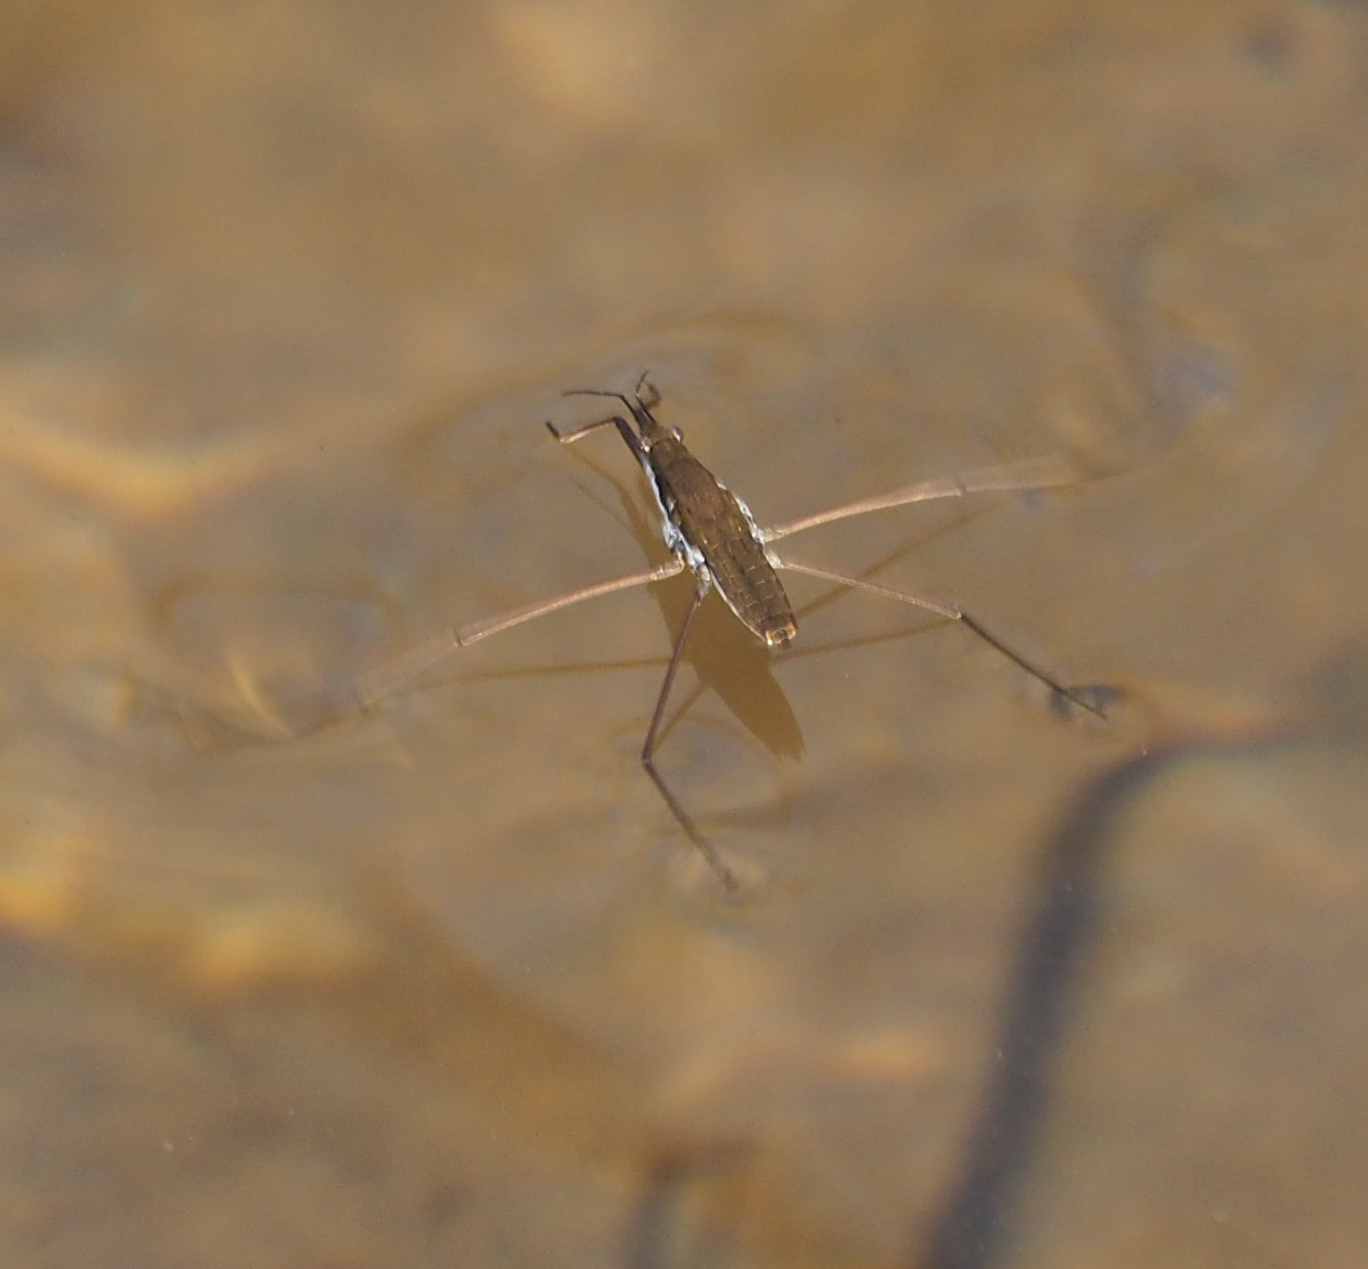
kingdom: Animalia
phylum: Arthropoda
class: Insecta
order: Hemiptera
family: Gerridae
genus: Aquarius
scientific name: Aquarius
